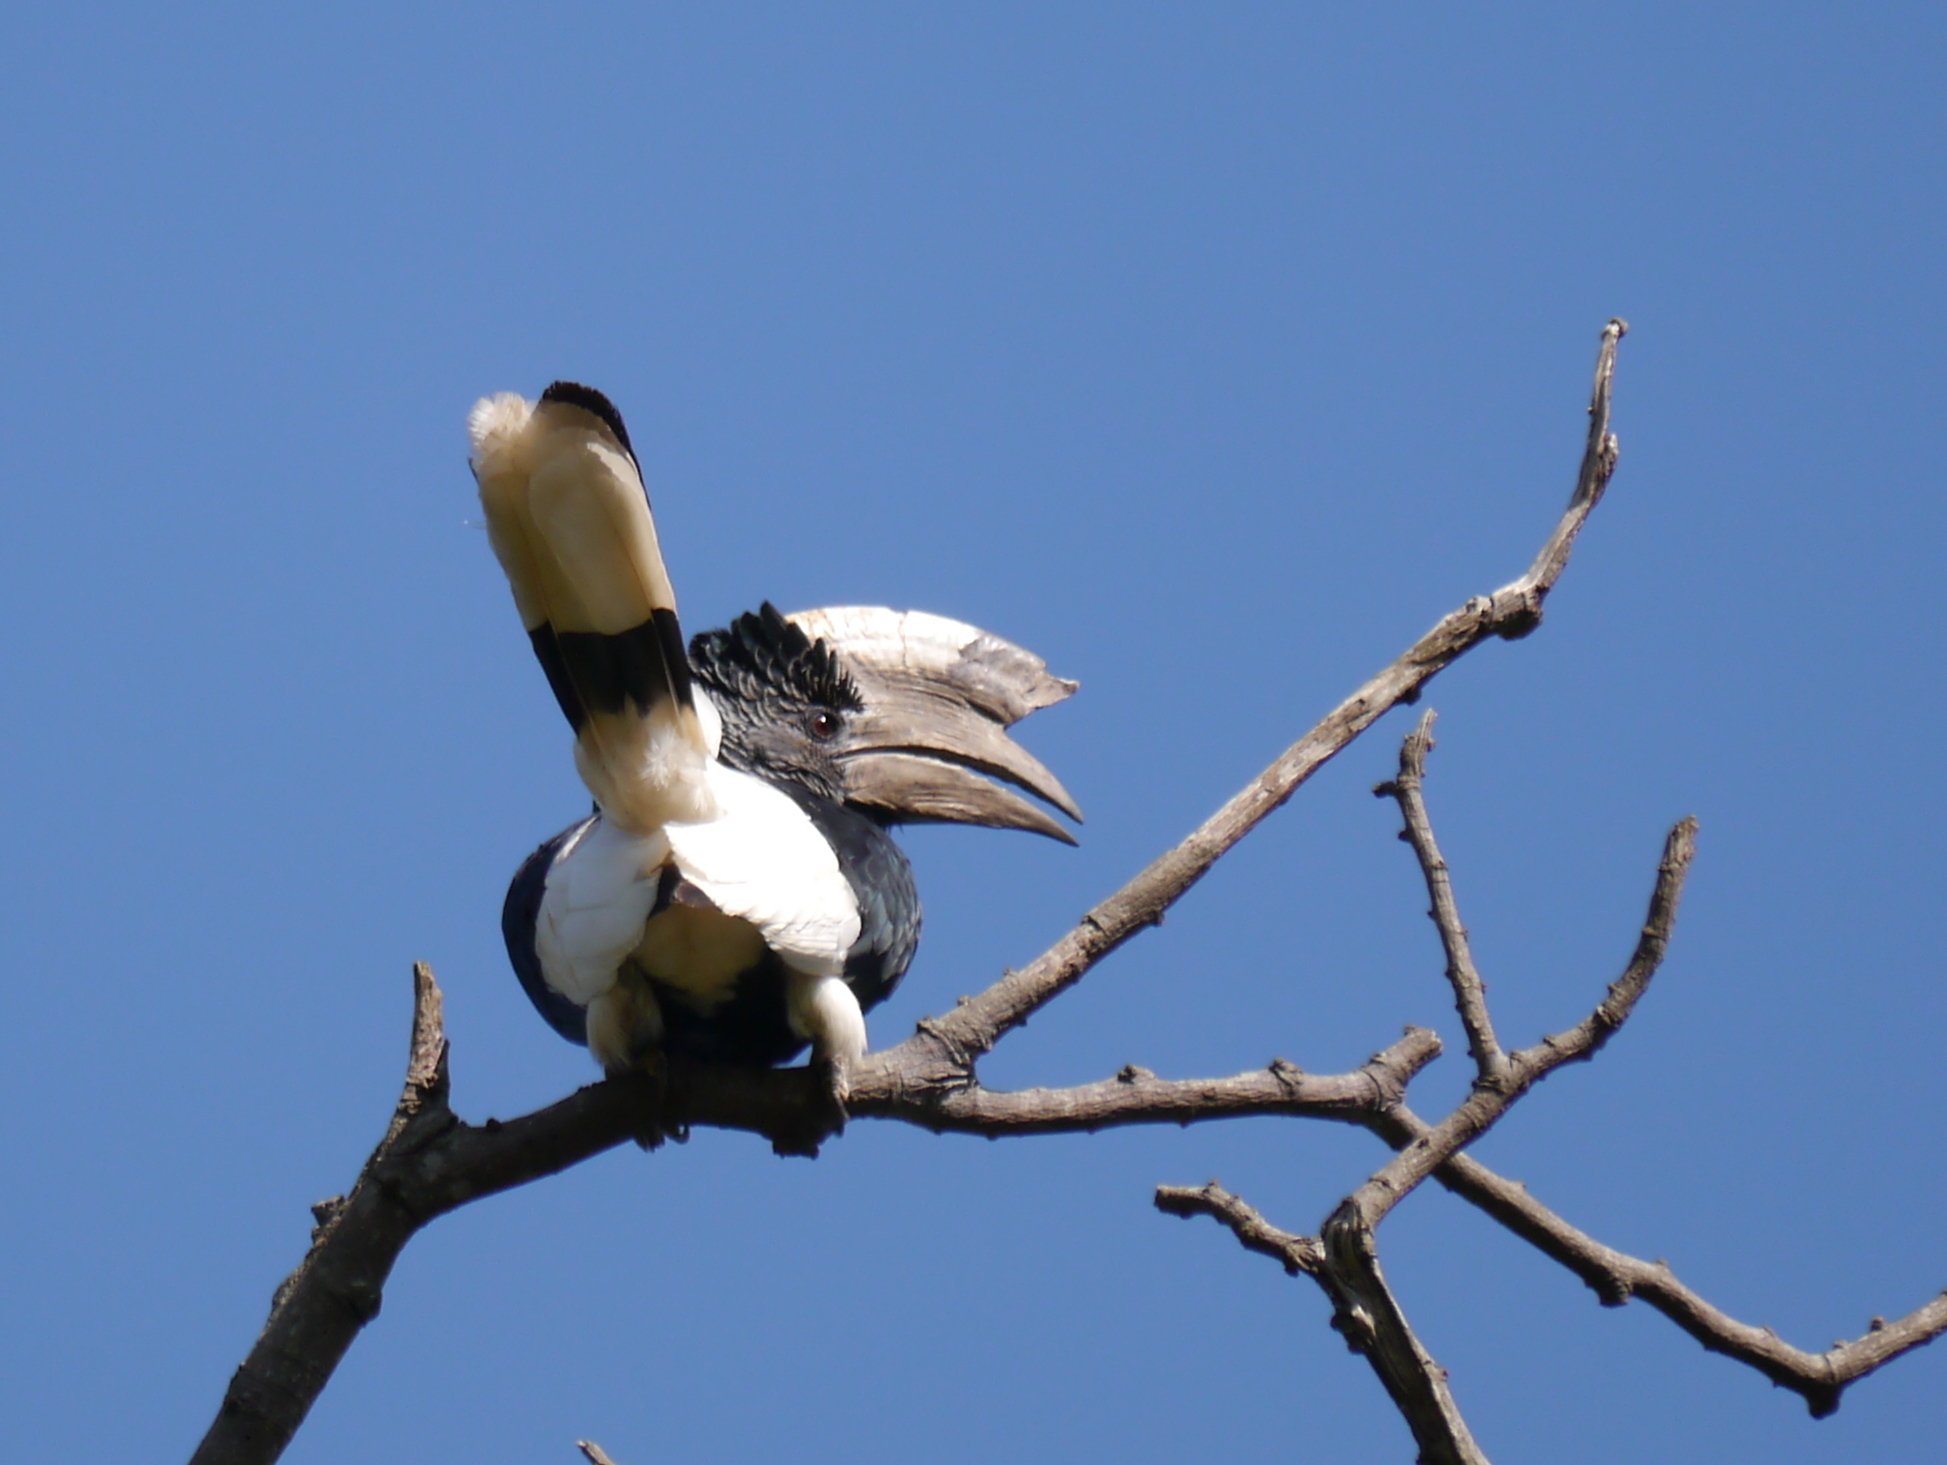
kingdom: Animalia
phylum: Chordata
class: Aves
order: Bucerotiformes
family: Bucerotidae
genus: Bycanistes
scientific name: Bycanistes subcylindricus
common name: Black-and-white-casqued hornbill
